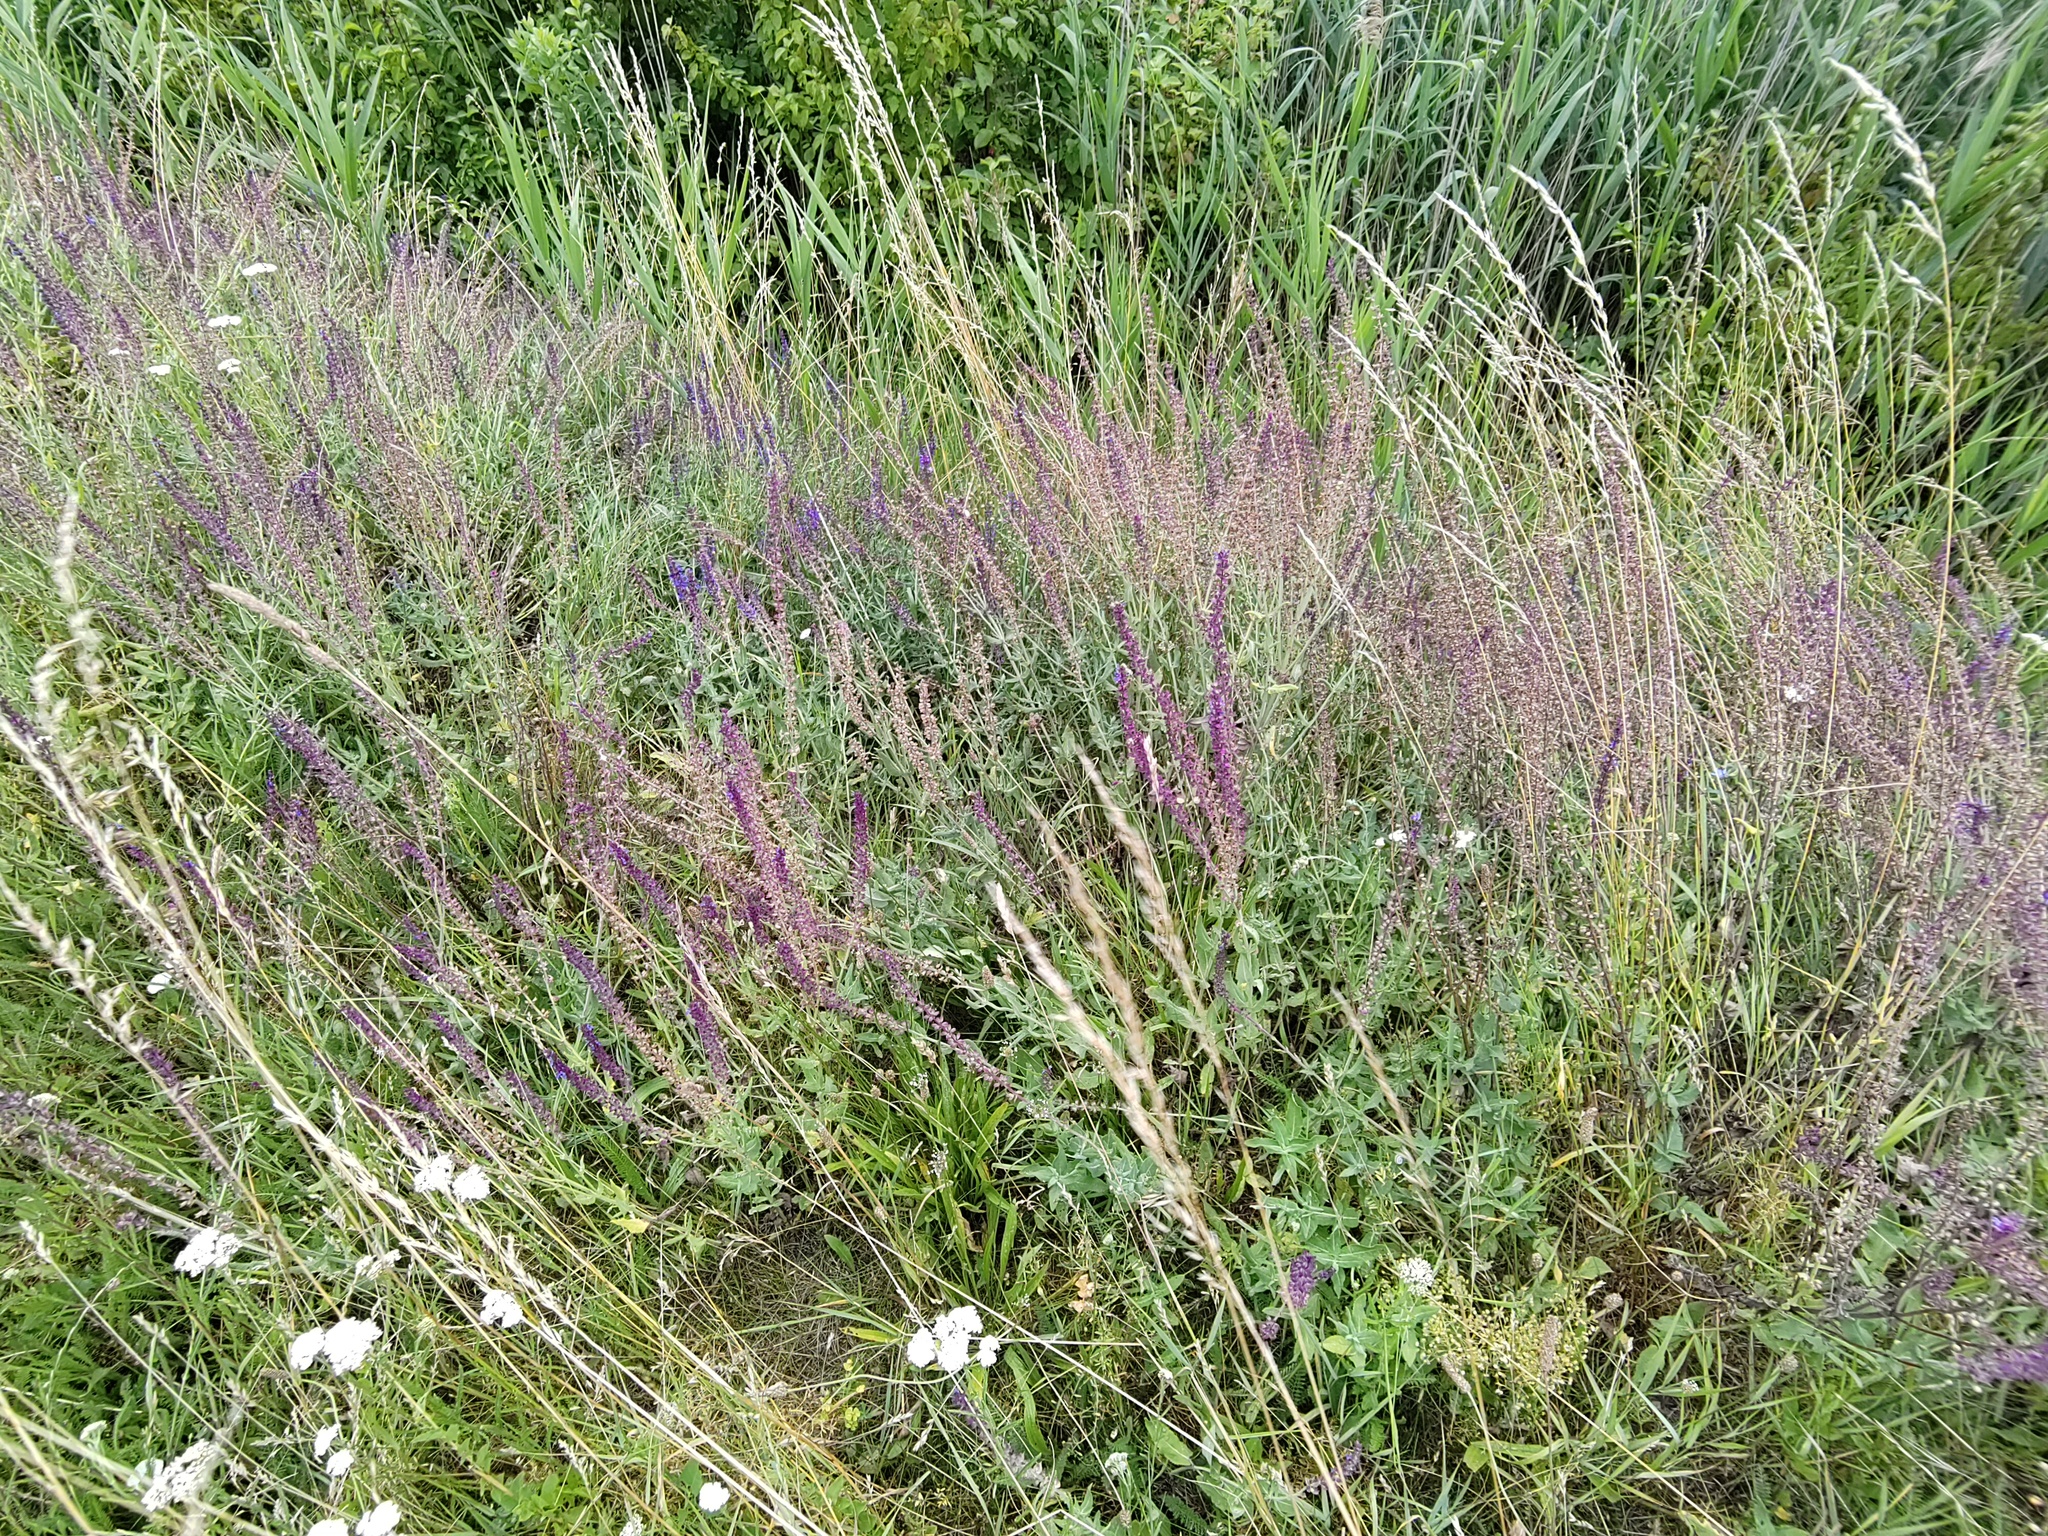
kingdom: Plantae
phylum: Tracheophyta
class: Magnoliopsida
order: Lamiales
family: Lamiaceae
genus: Salvia
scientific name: Salvia nemorosa
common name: Balkan clary
